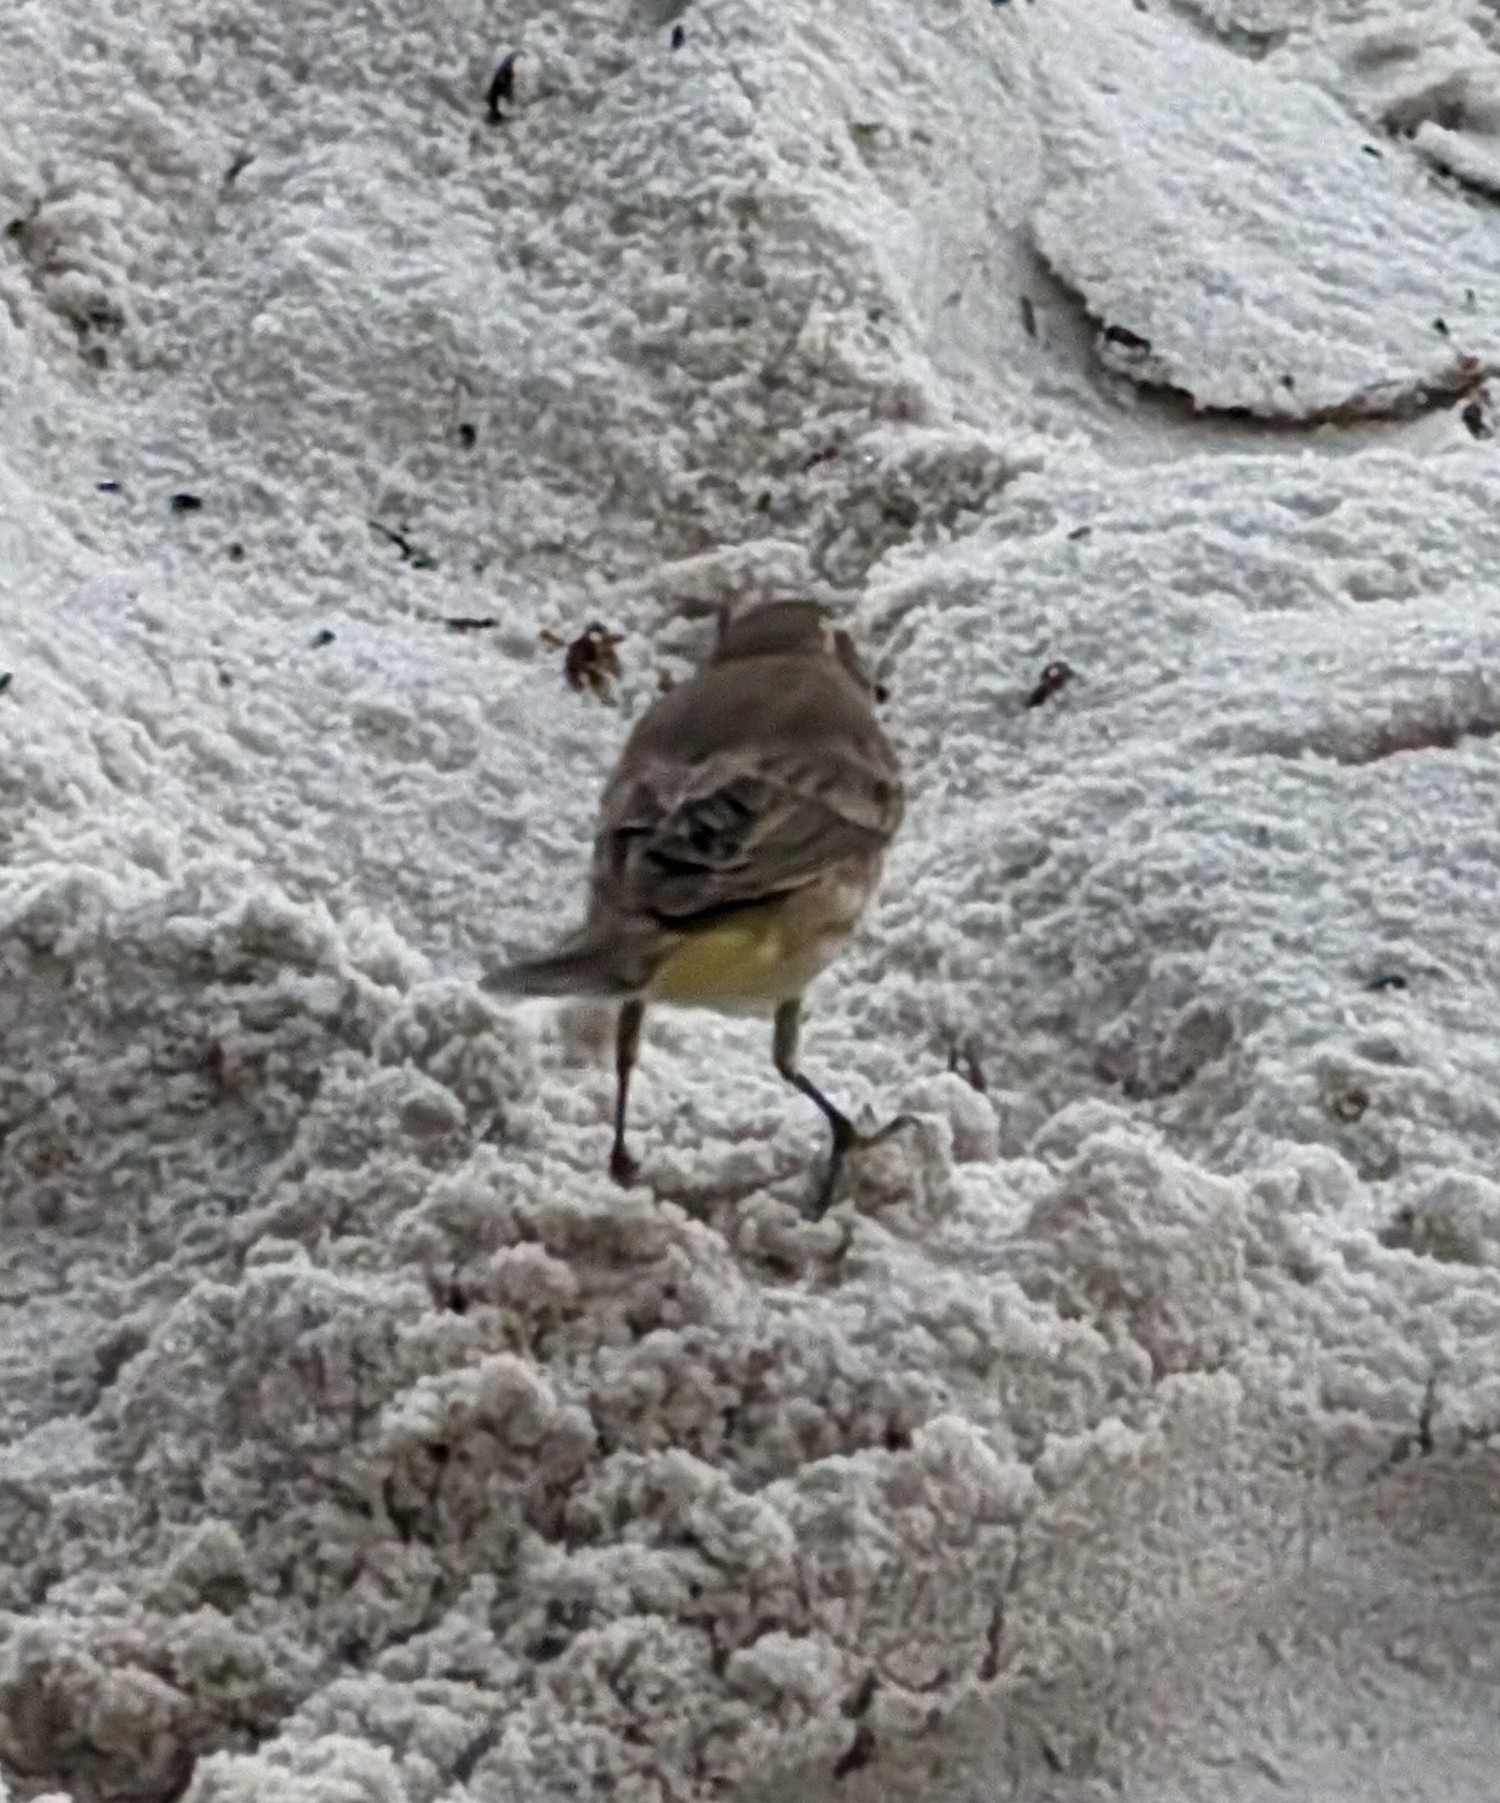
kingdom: Animalia
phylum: Chordata
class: Aves
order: Passeriformes
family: Parulidae
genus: Setophaga
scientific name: Setophaga palmarum
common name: Palm warbler
